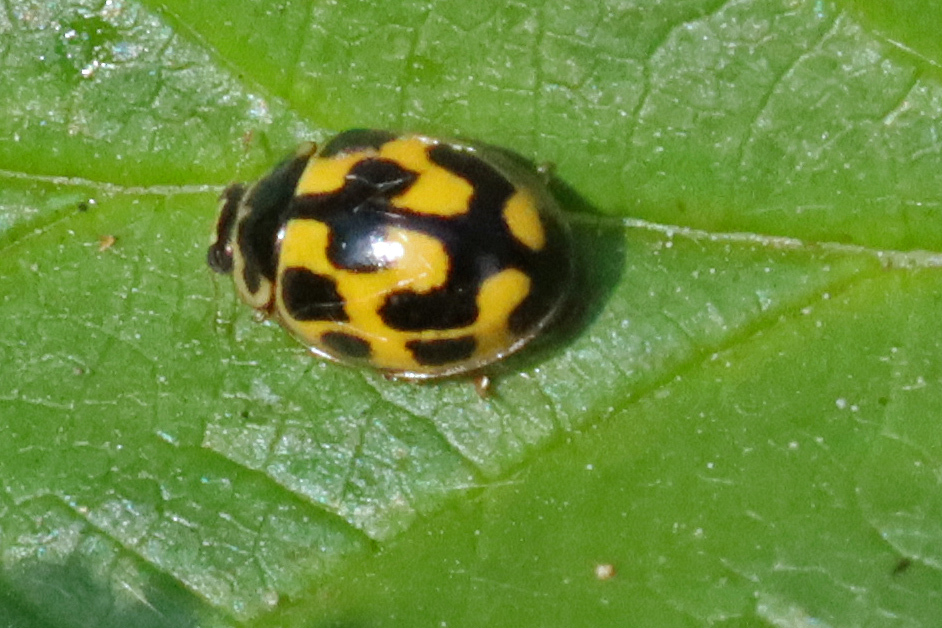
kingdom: Animalia
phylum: Arthropoda
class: Insecta
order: Coleoptera
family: Coccinellidae
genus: Propylaea
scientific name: Propylaea quatuordecimpunctata
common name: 14-spotted ladybird beetle
